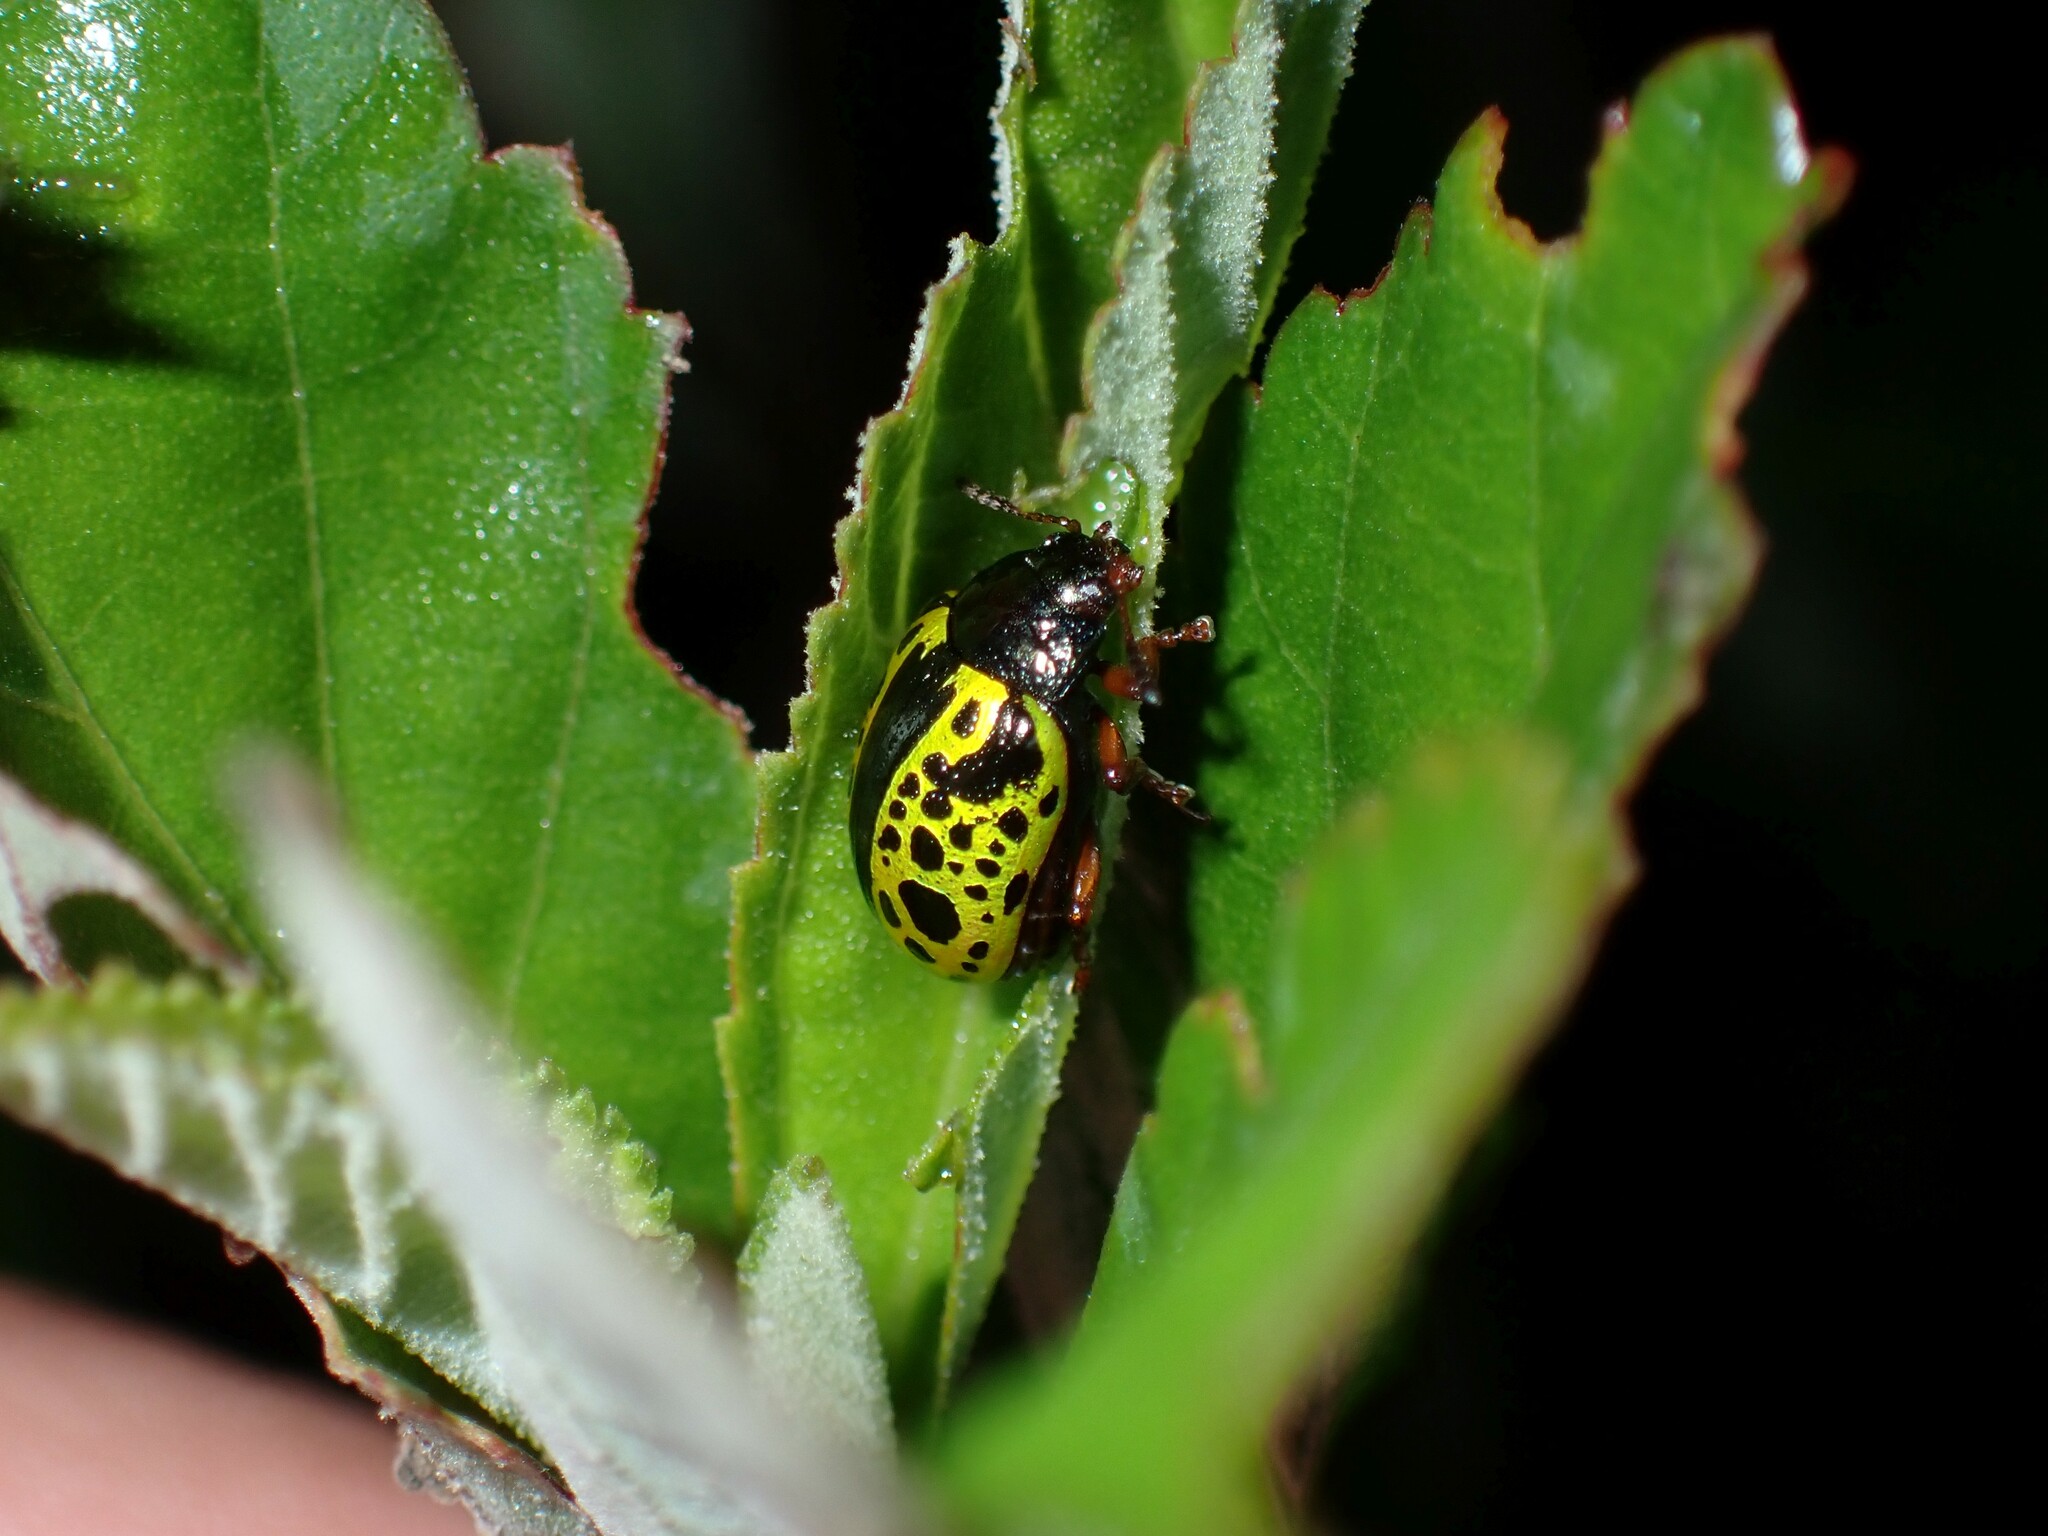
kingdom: Animalia
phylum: Arthropoda
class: Insecta
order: Coleoptera
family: Chrysomelidae
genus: Calligrapha
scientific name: Calligrapha pantherina
